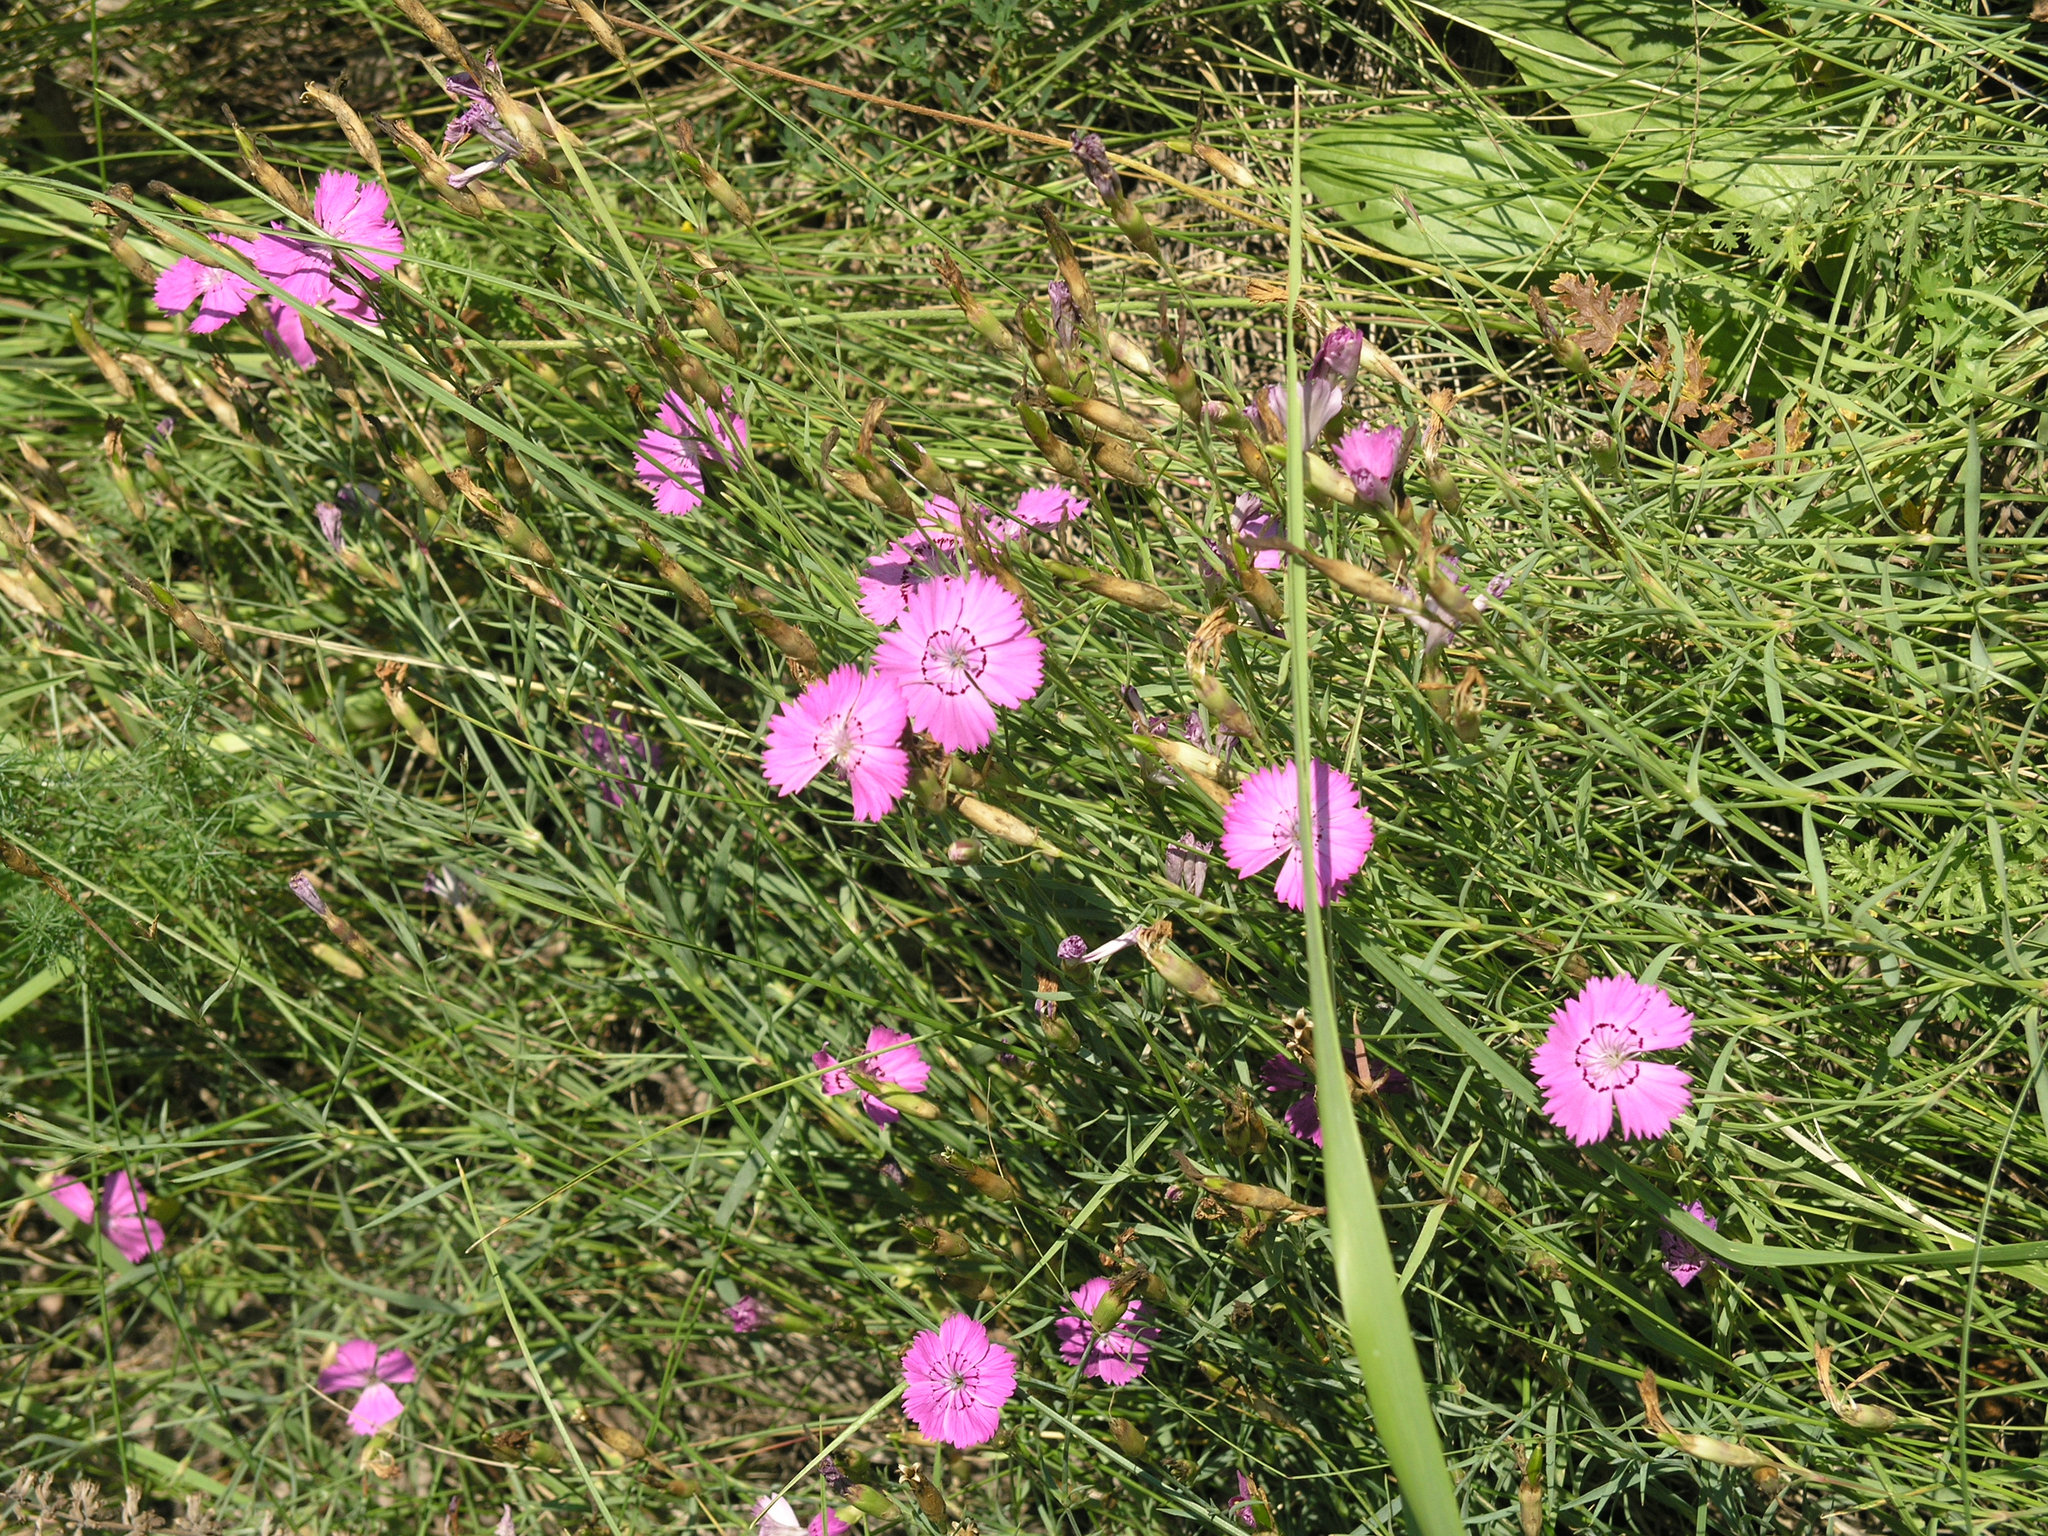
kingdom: Plantae
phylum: Tracheophyta
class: Magnoliopsida
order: Caryophyllales
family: Caryophyllaceae
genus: Dianthus
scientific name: Dianthus chinensis
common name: Rainbow pink
